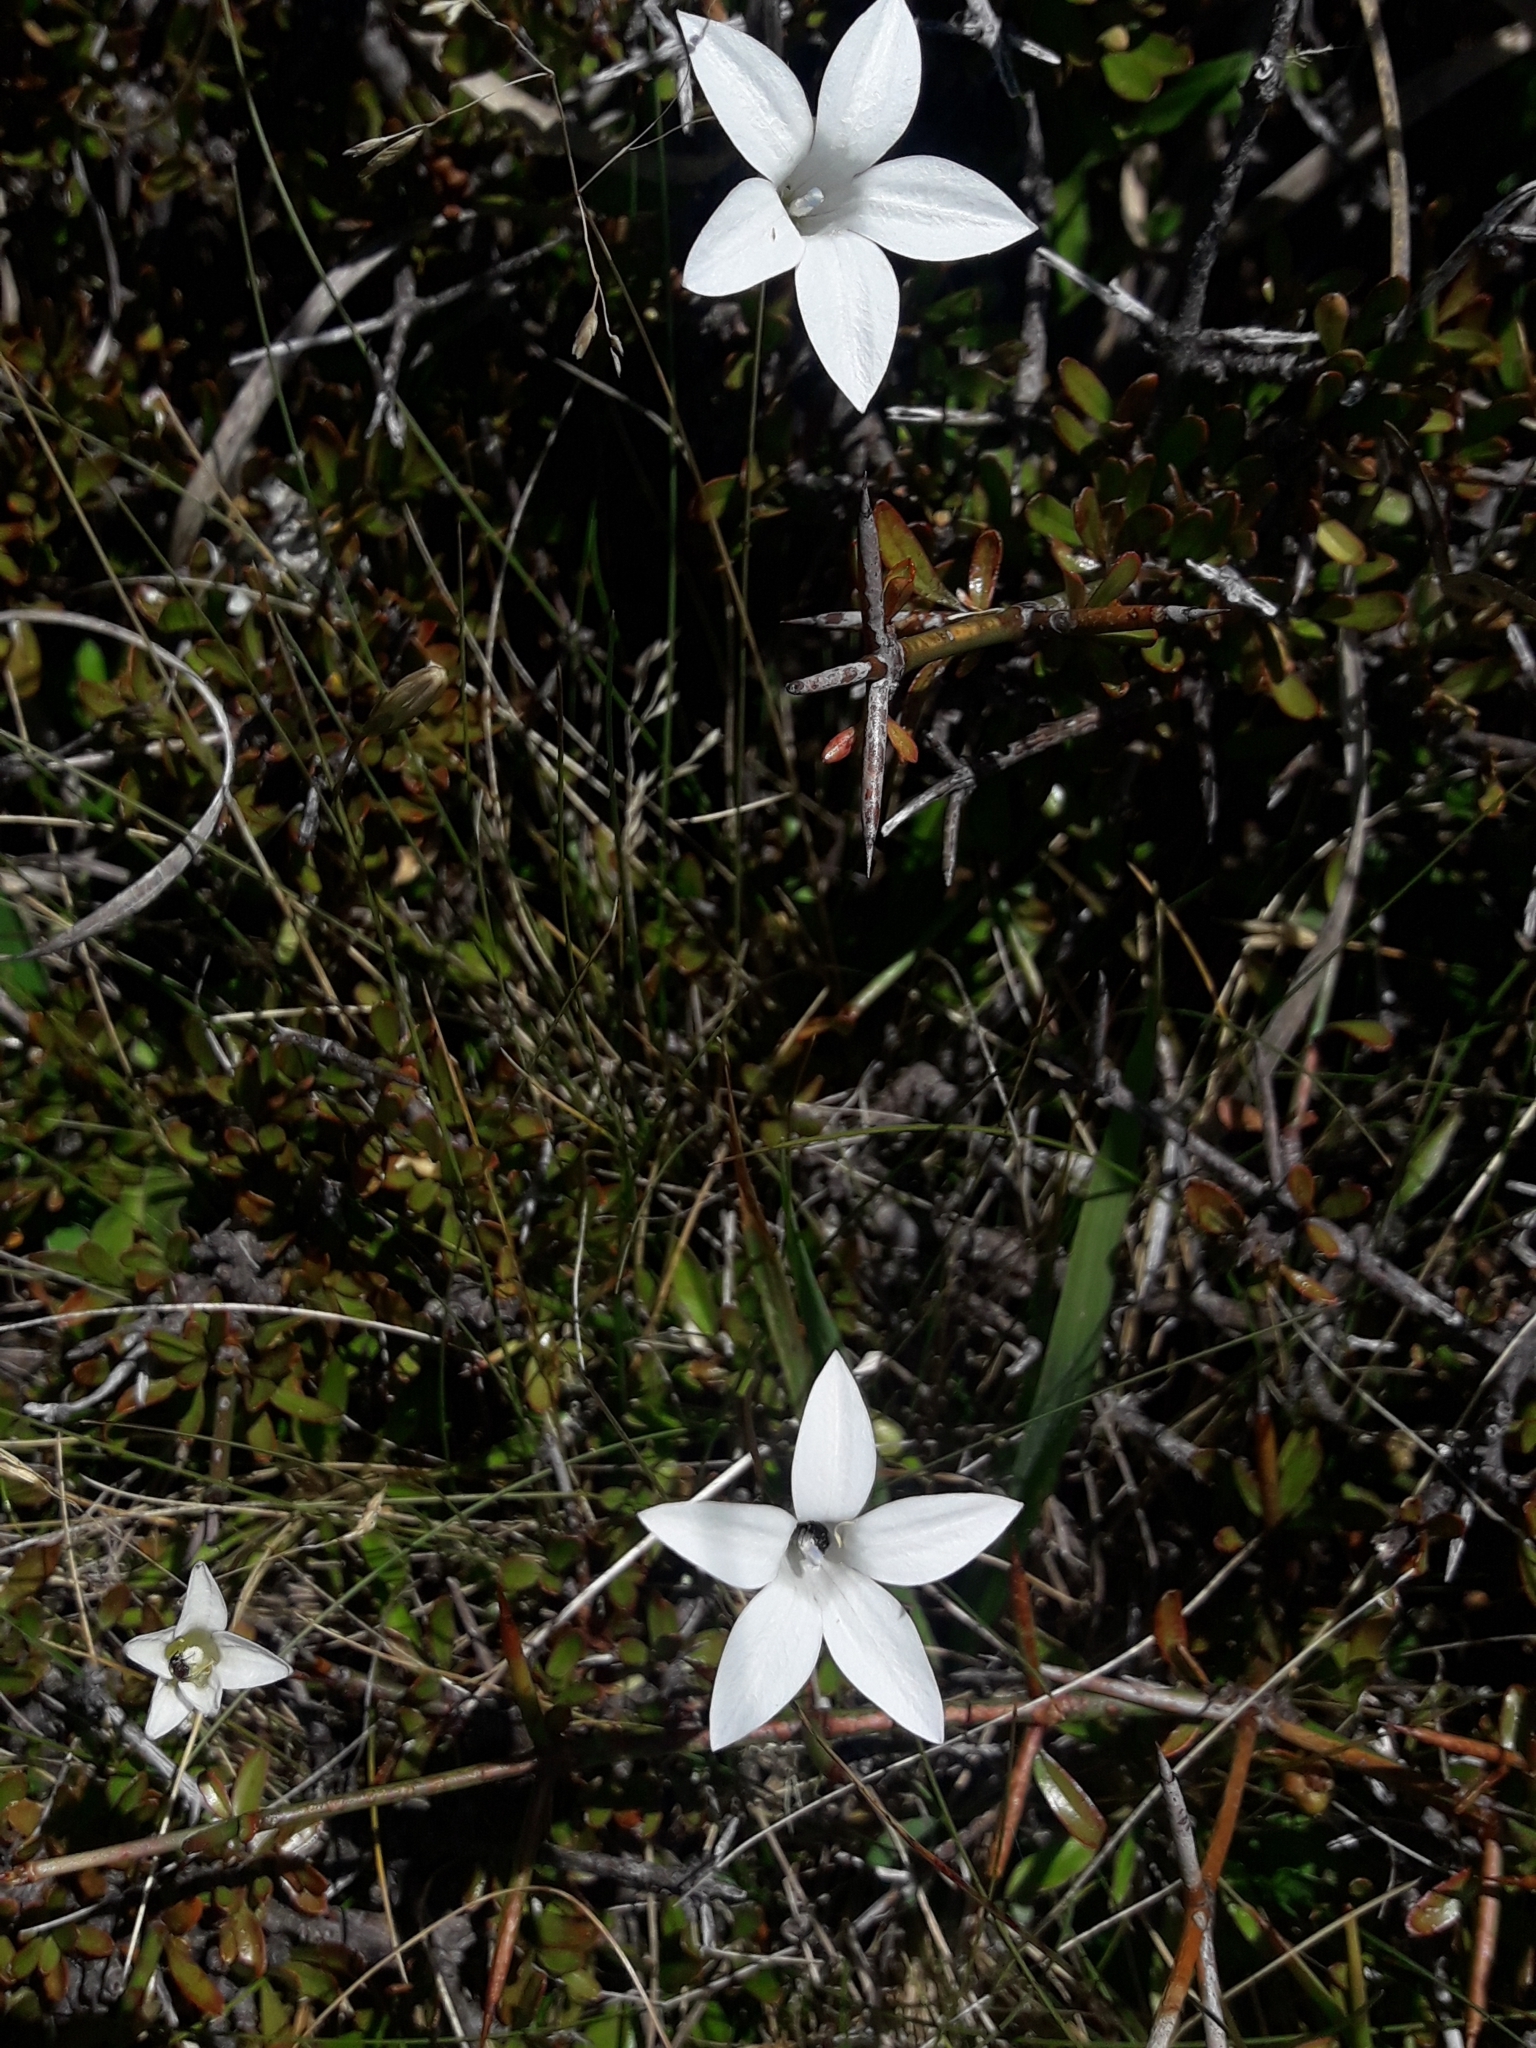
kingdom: Plantae
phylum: Tracheophyta
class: Magnoliopsida
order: Asterales
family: Campanulaceae
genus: Wahlenbergia
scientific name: Wahlenbergia albomarginata
